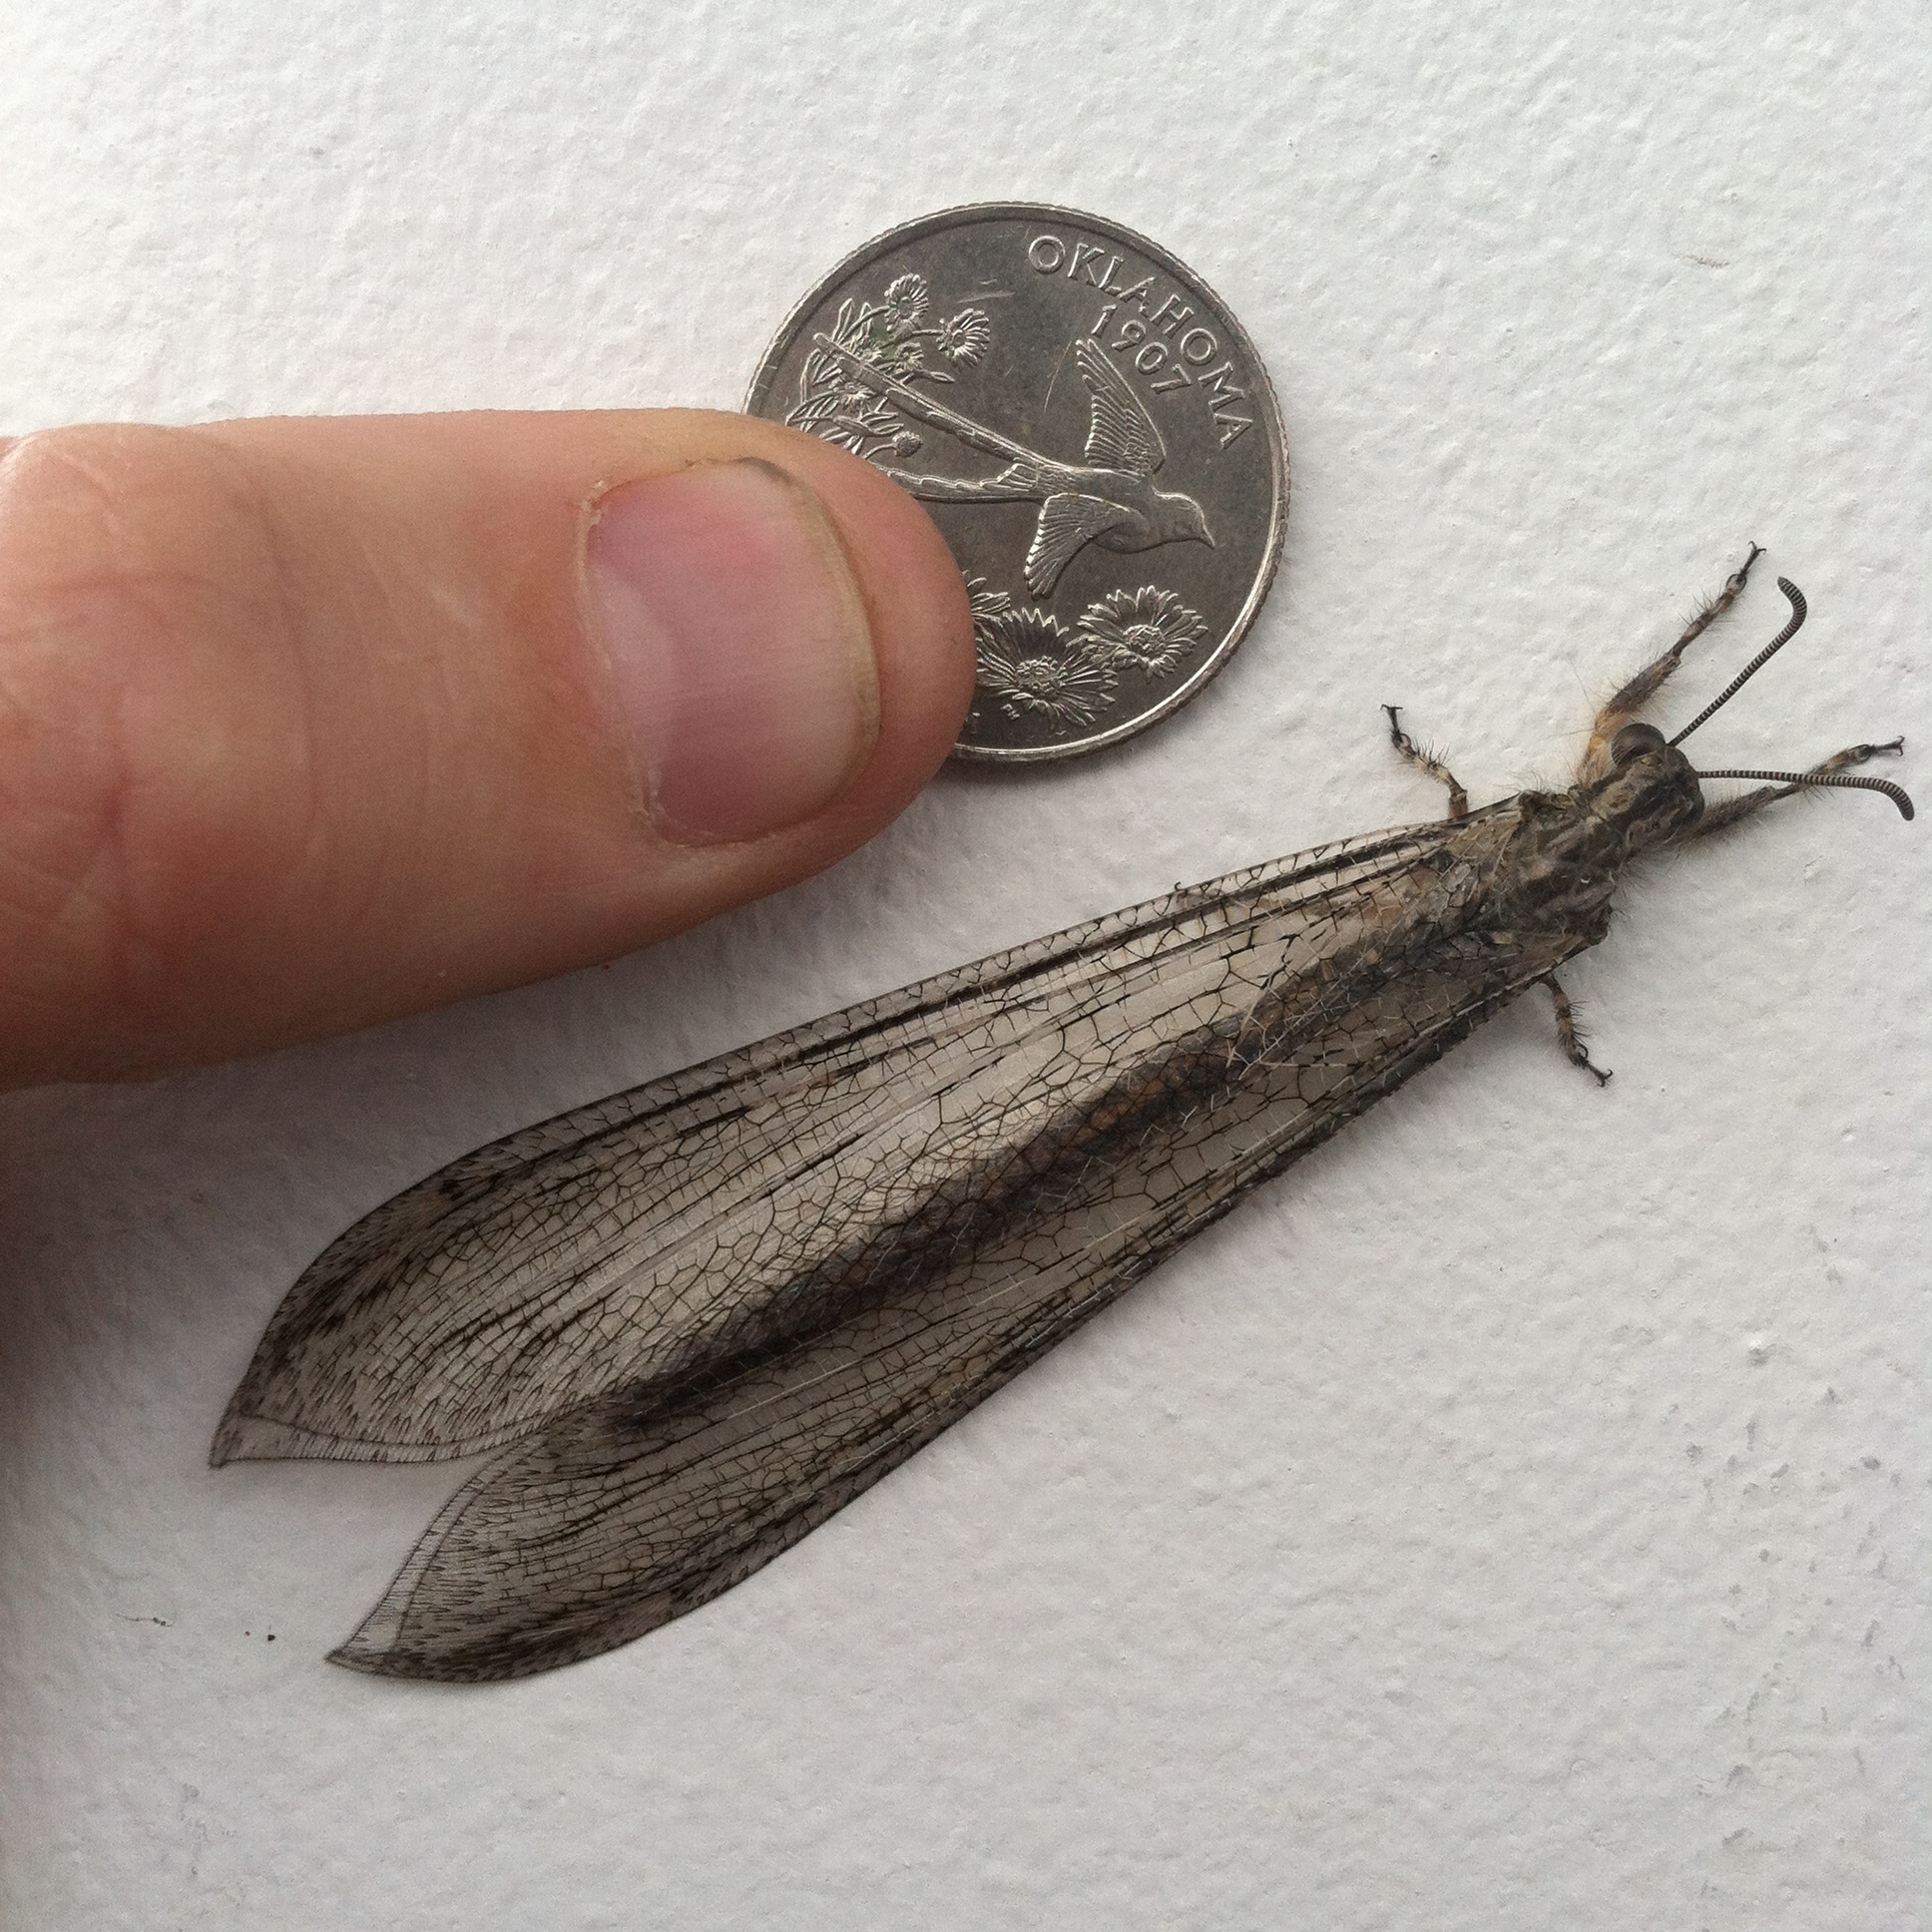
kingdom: Animalia
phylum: Arthropoda
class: Insecta
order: Neuroptera
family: Myrmeleontidae
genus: Vella
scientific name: Vella fallax
